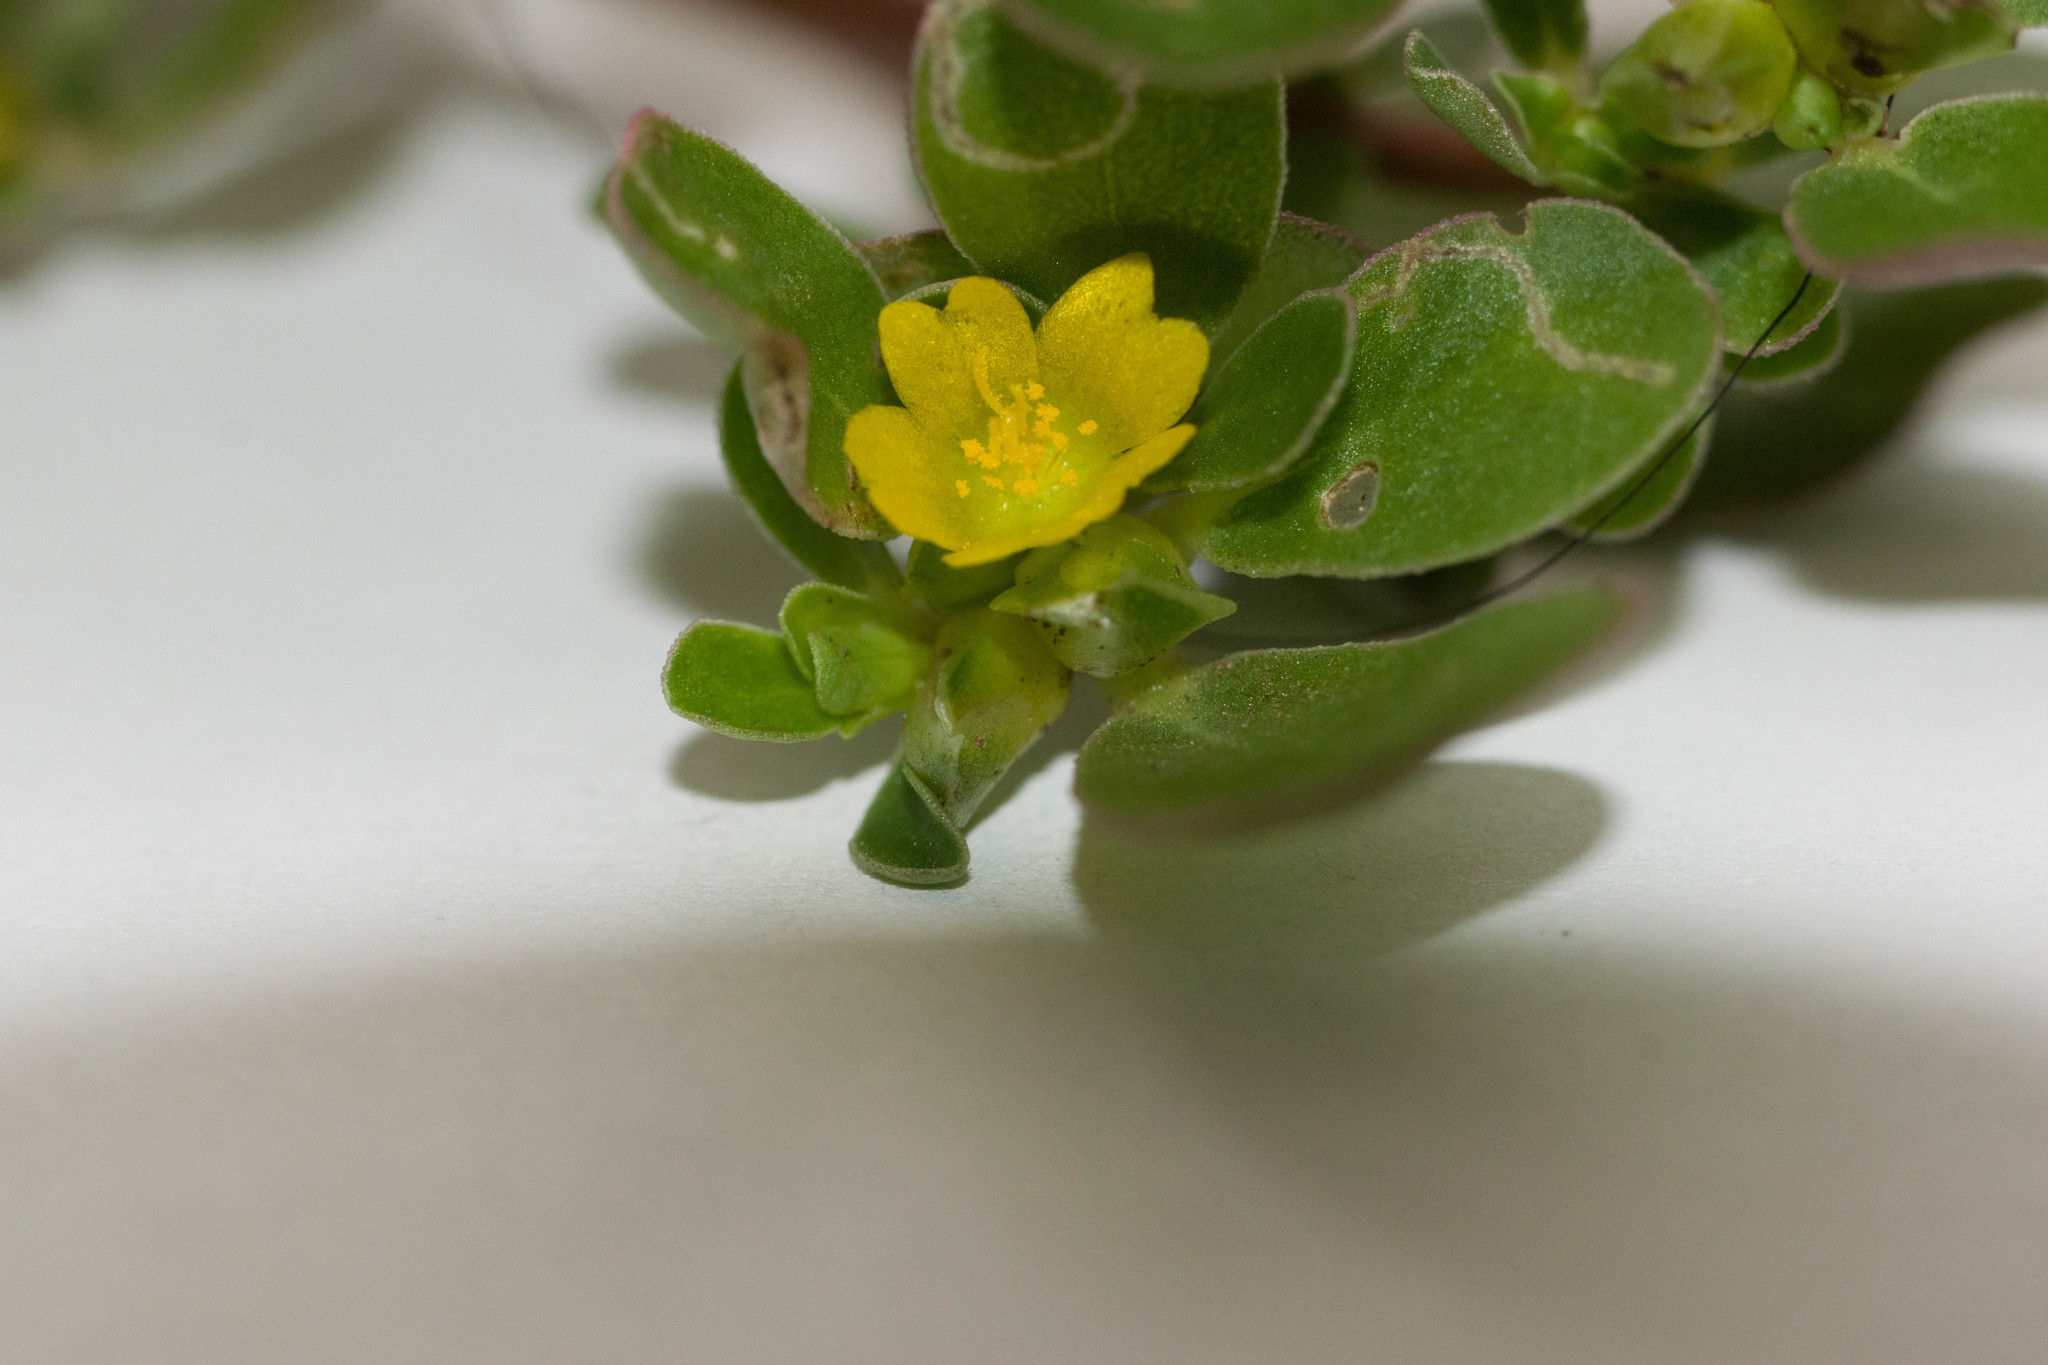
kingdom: Plantae
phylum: Tracheophyta
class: Magnoliopsida
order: Caryophyllales
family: Portulacaceae
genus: Portulaca
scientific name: Portulaca oleracea
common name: Common purslane
